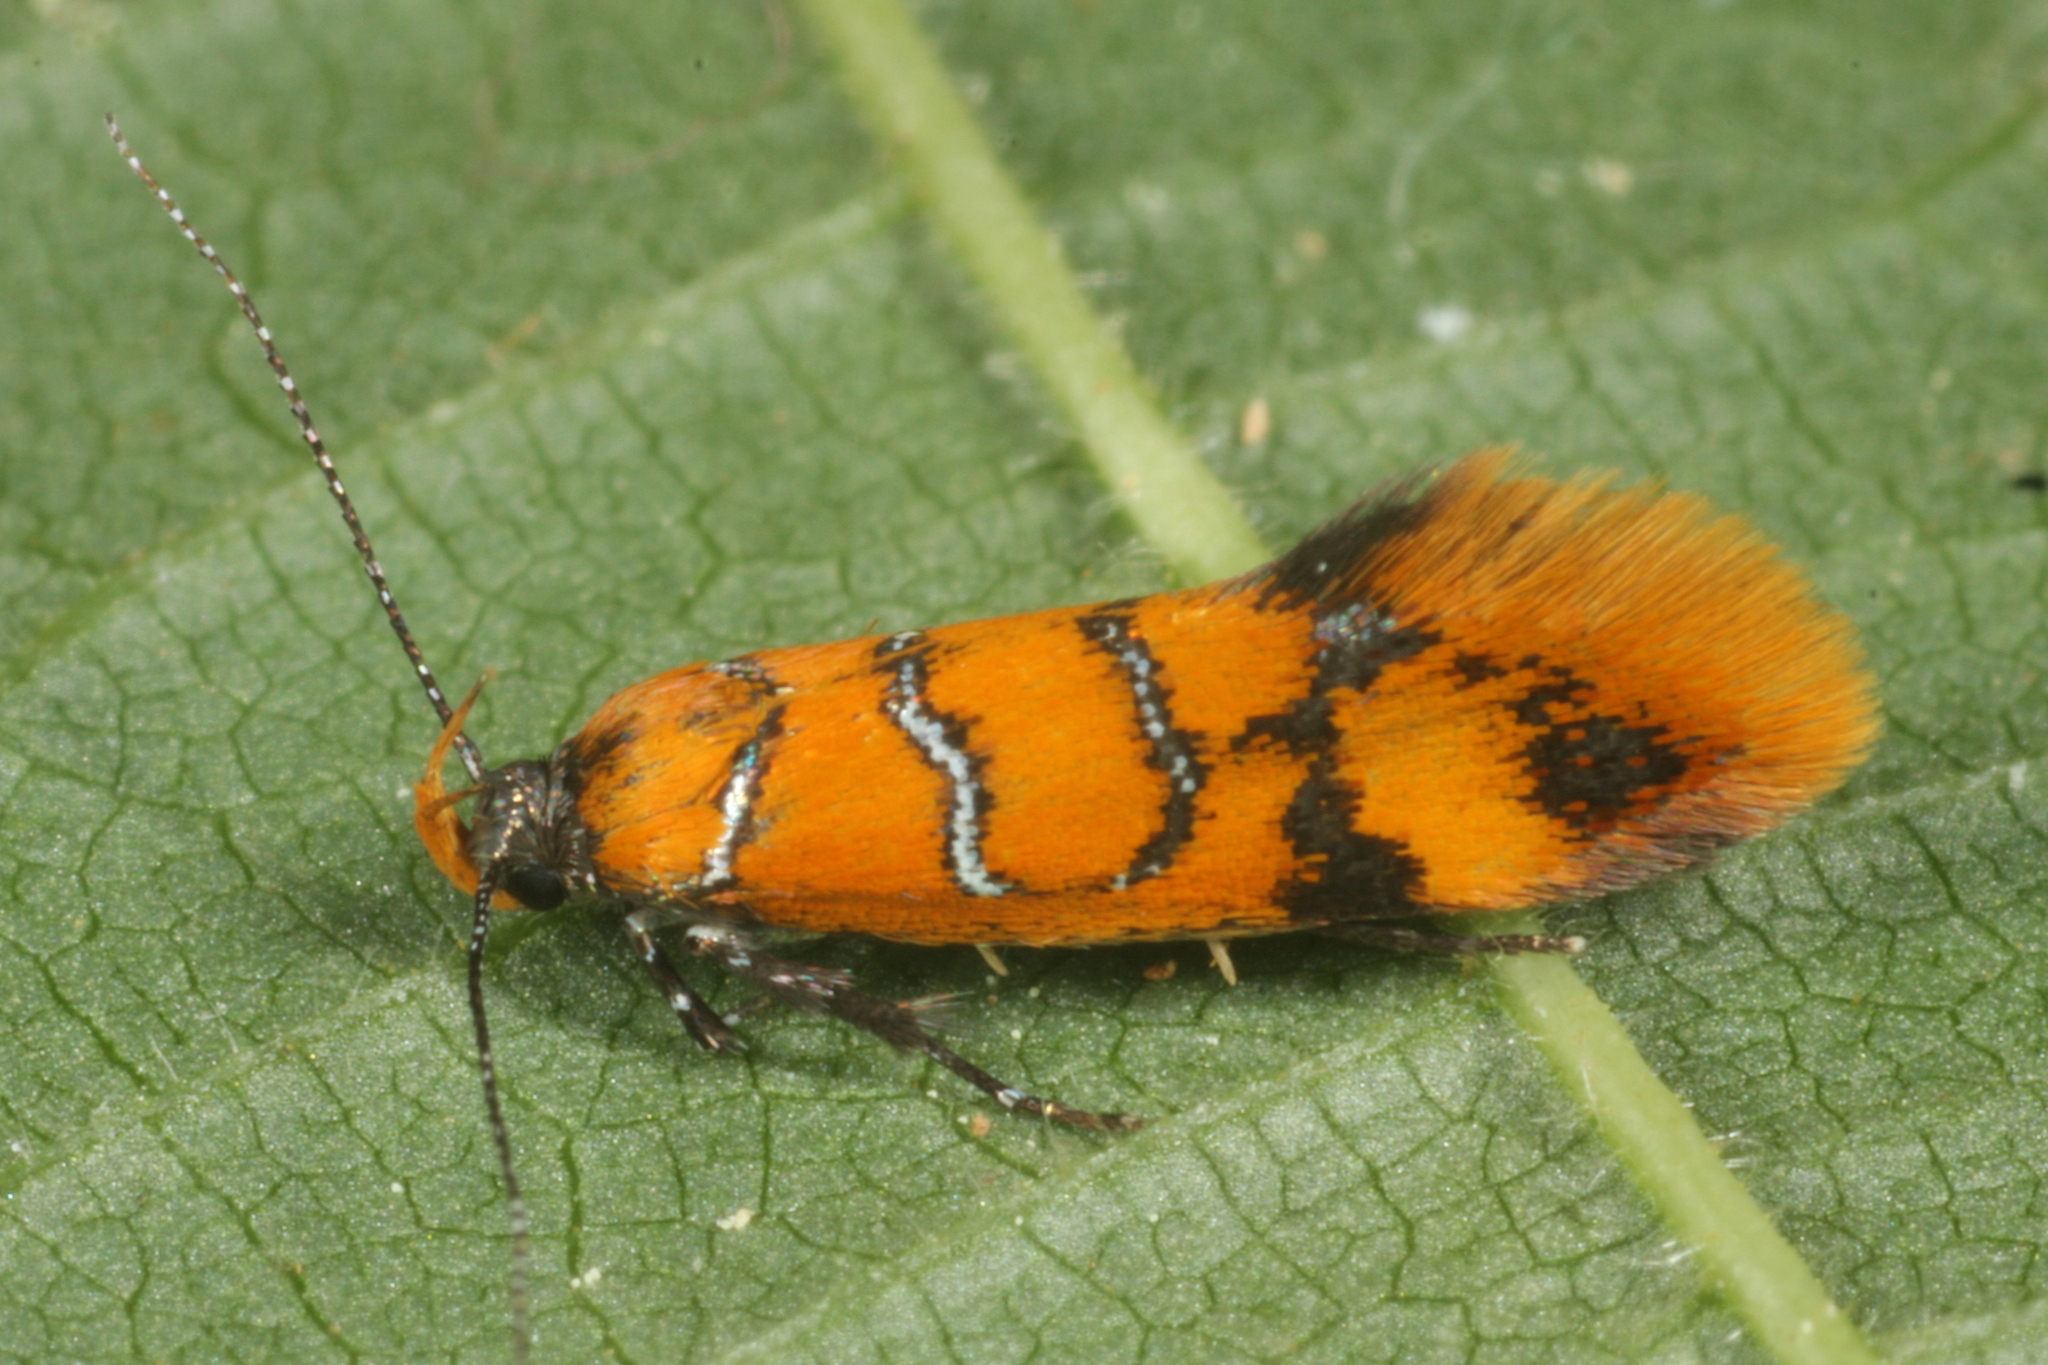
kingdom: Animalia
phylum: Arthropoda
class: Insecta
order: Lepidoptera
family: Oecophoridae
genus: Schiffermuelleria
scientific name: Schiffermuelleria procerella
